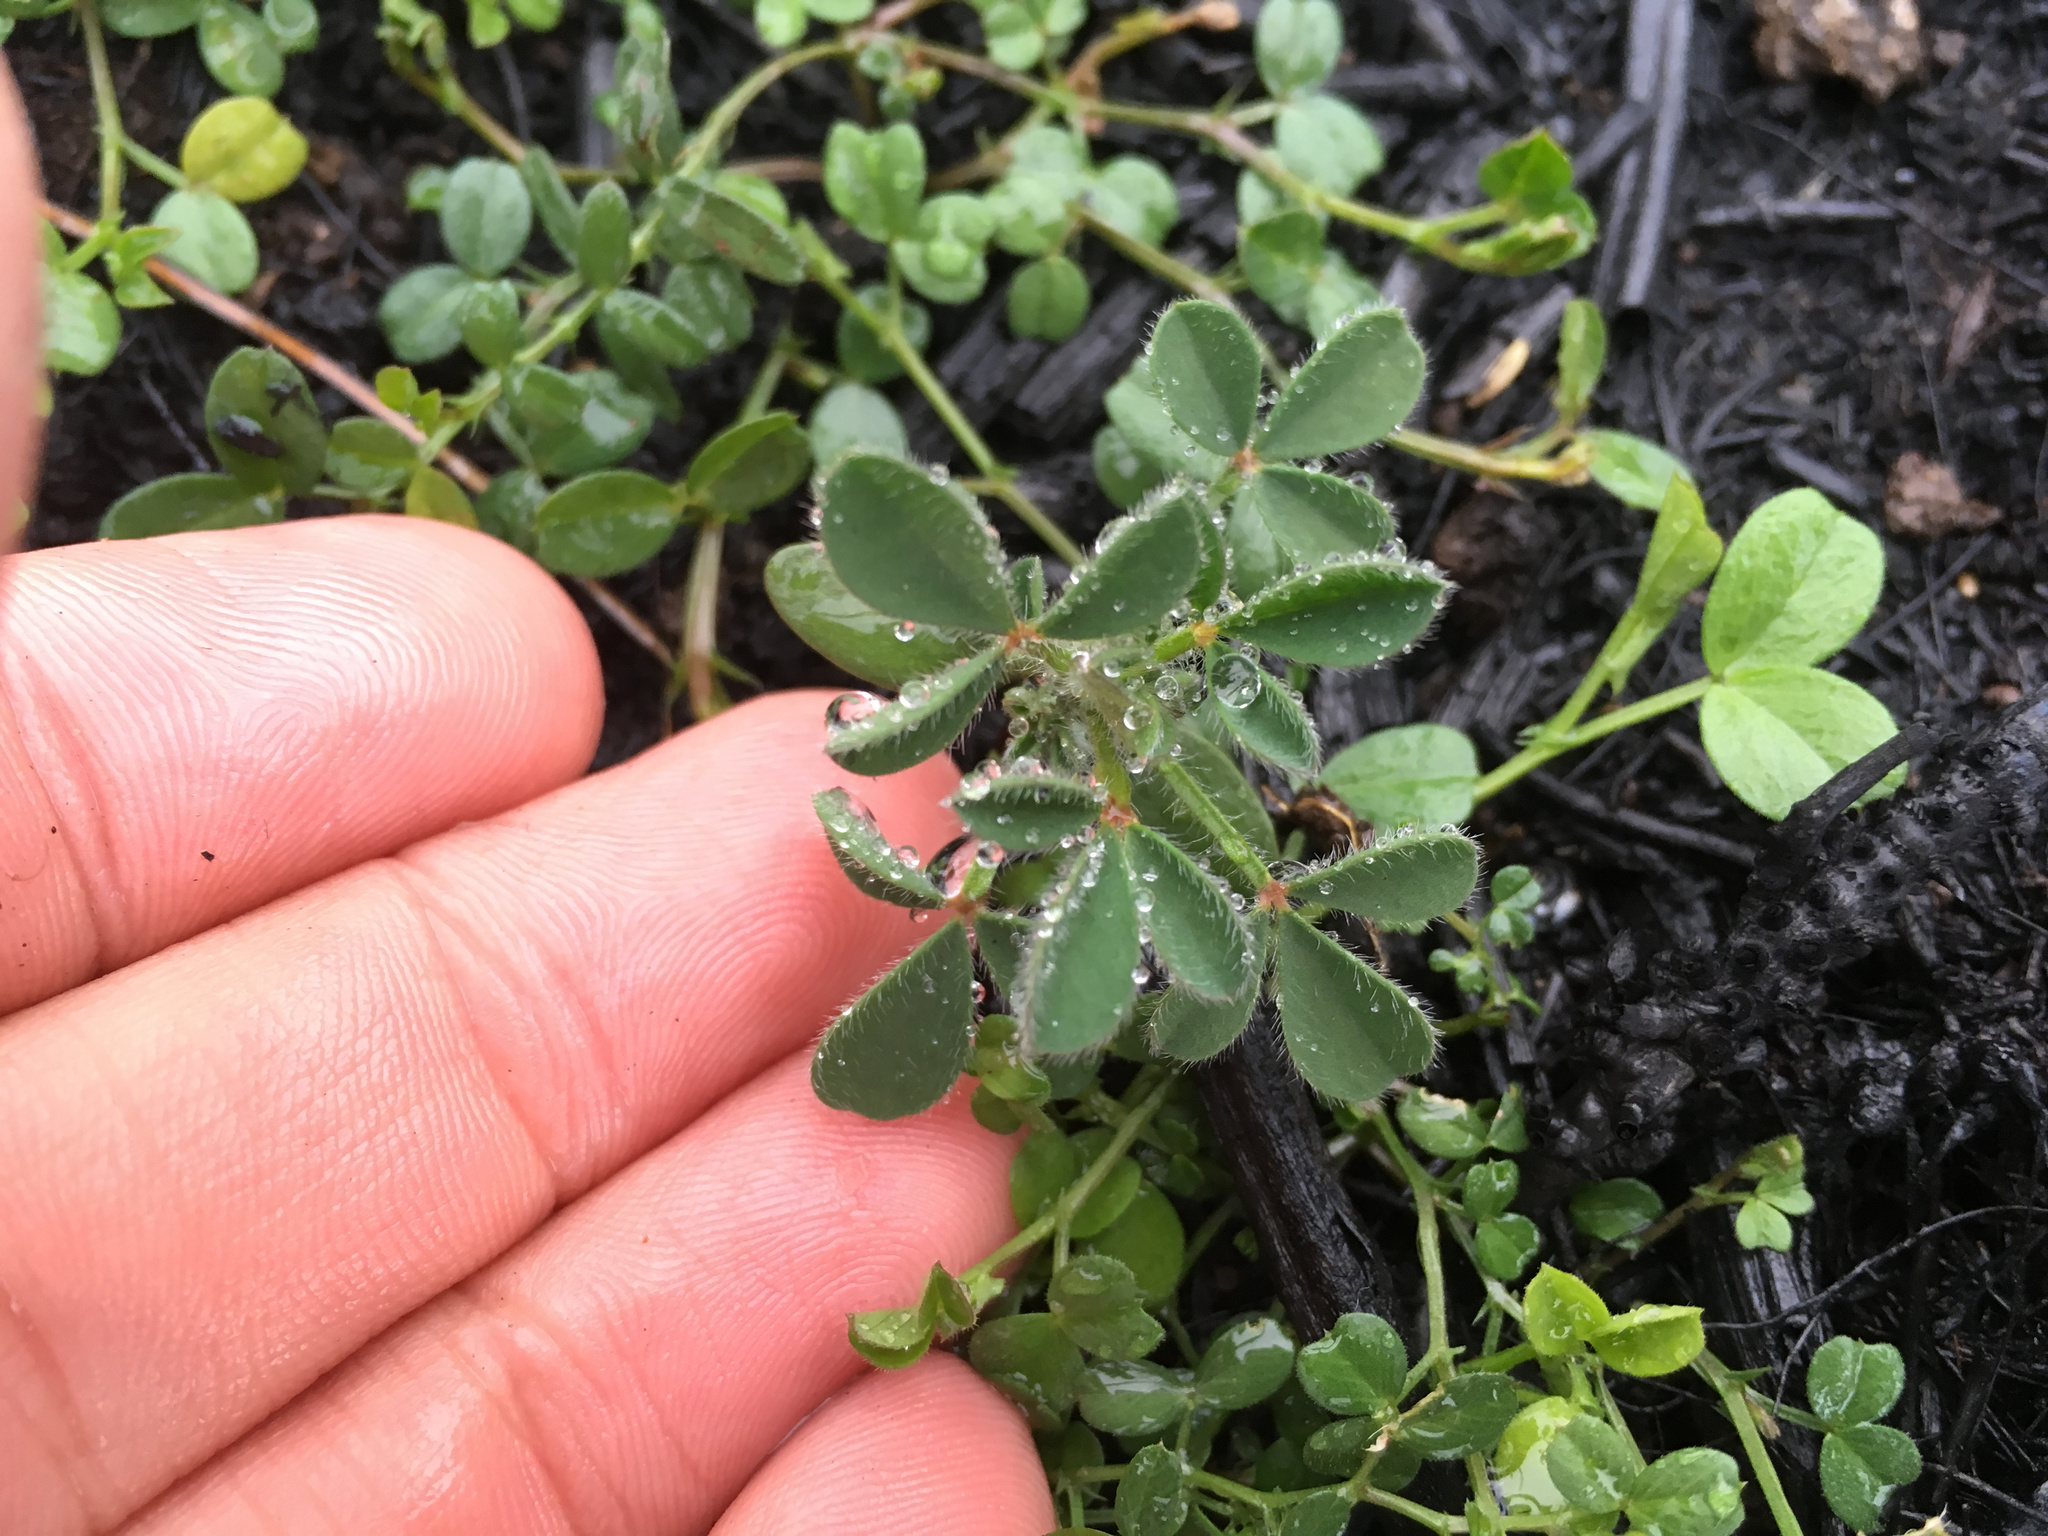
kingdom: Plantae
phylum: Tracheophyta
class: Magnoliopsida
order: Fabales
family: Fabaceae
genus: Ulex
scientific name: Ulex europaeus
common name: Common gorse
